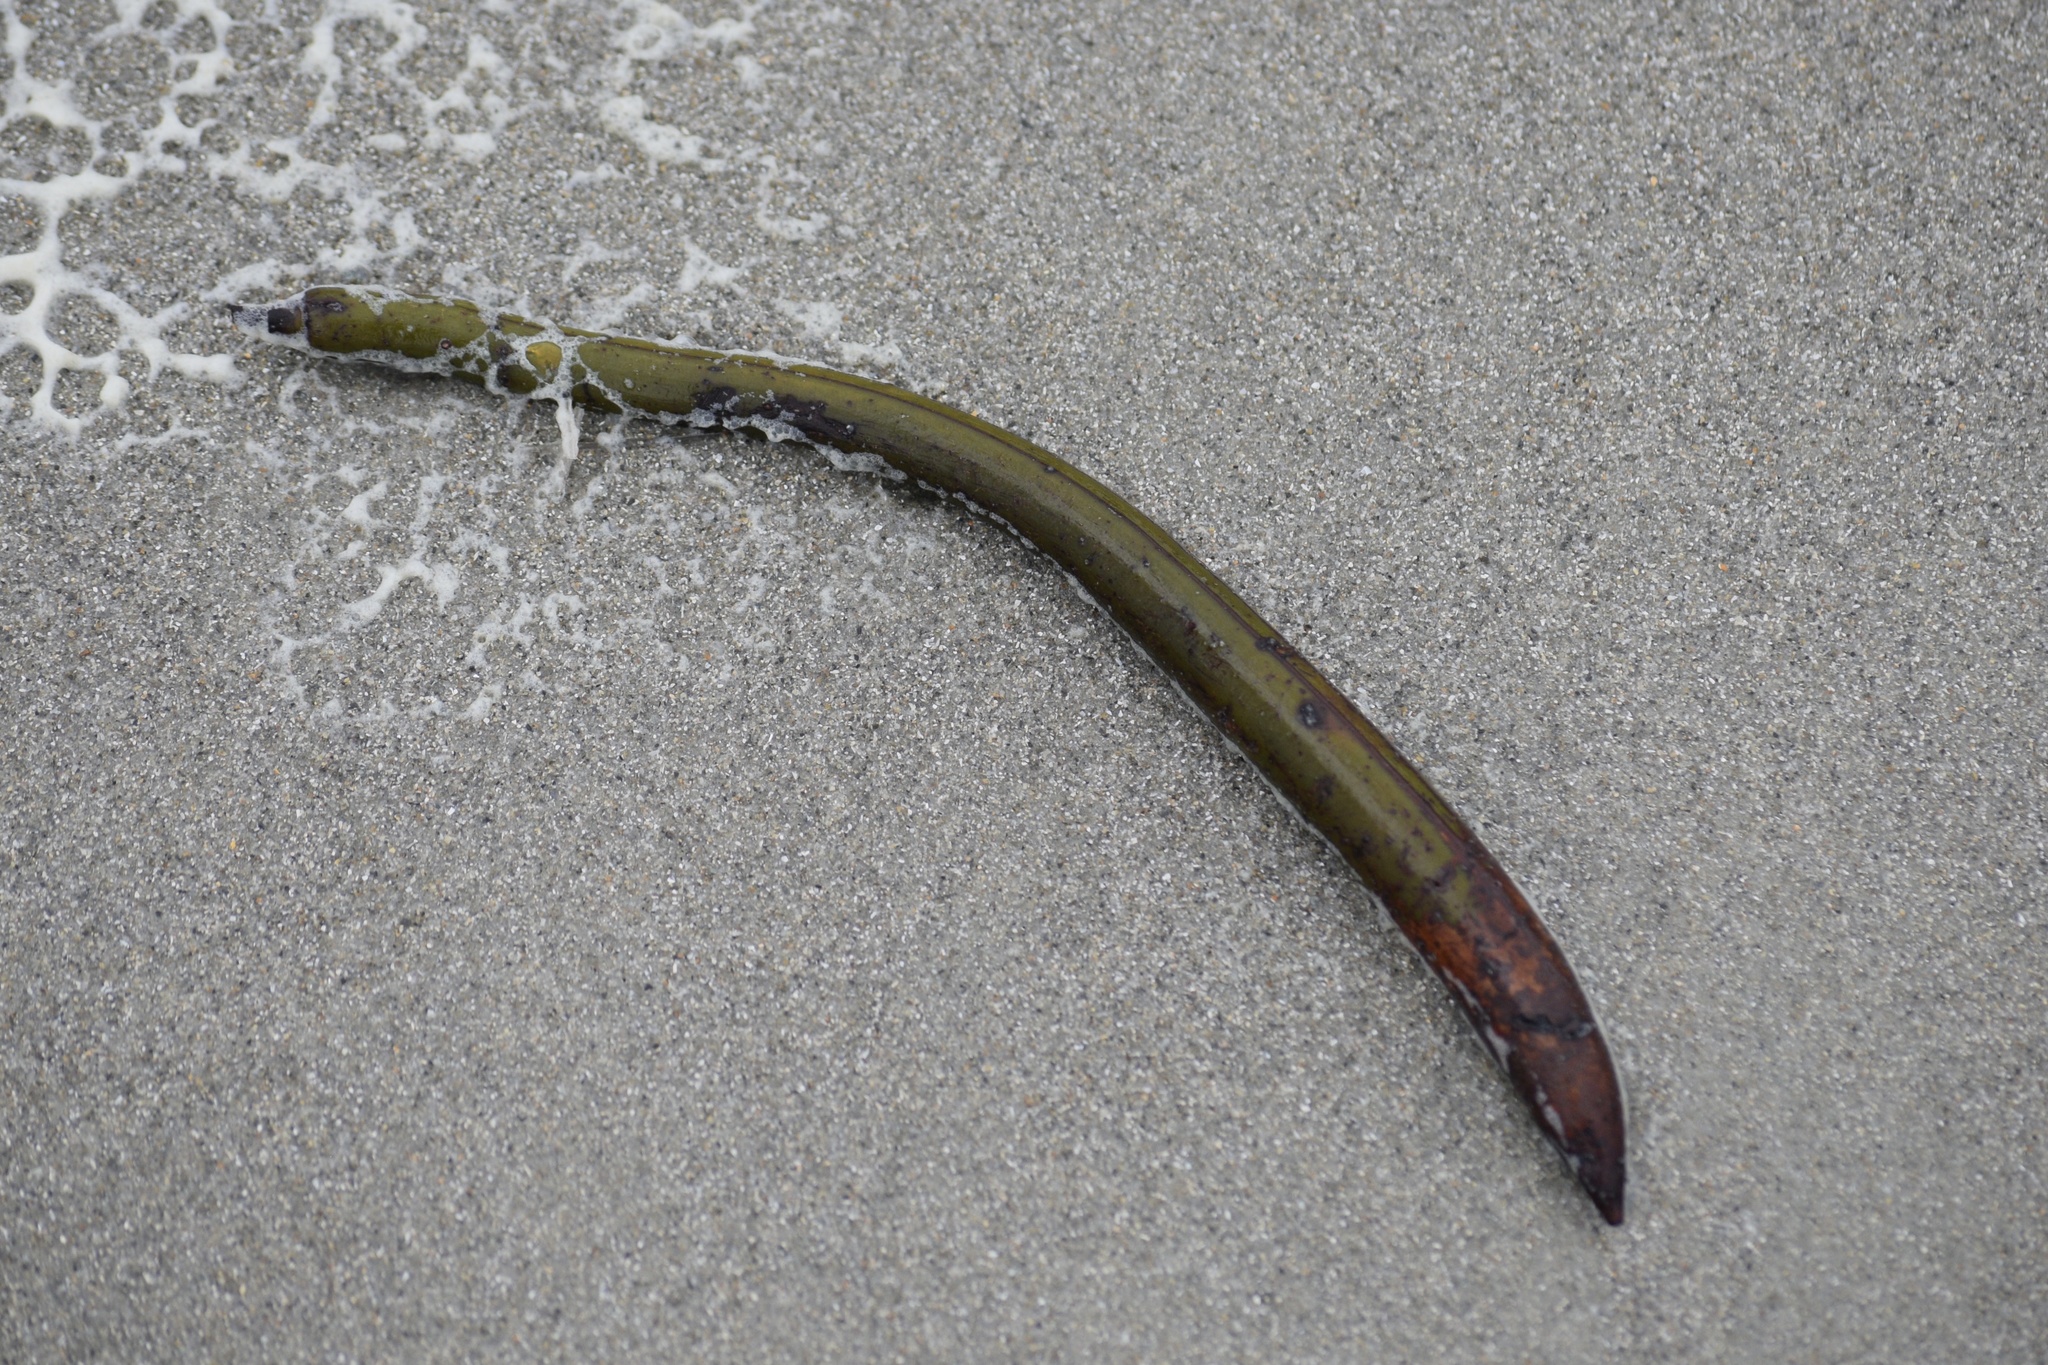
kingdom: Plantae
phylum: Tracheophyta
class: Magnoliopsida
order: Malpighiales
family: Rhizophoraceae
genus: Rhizophora
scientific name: Rhizophora mangle
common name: Red mangrove
